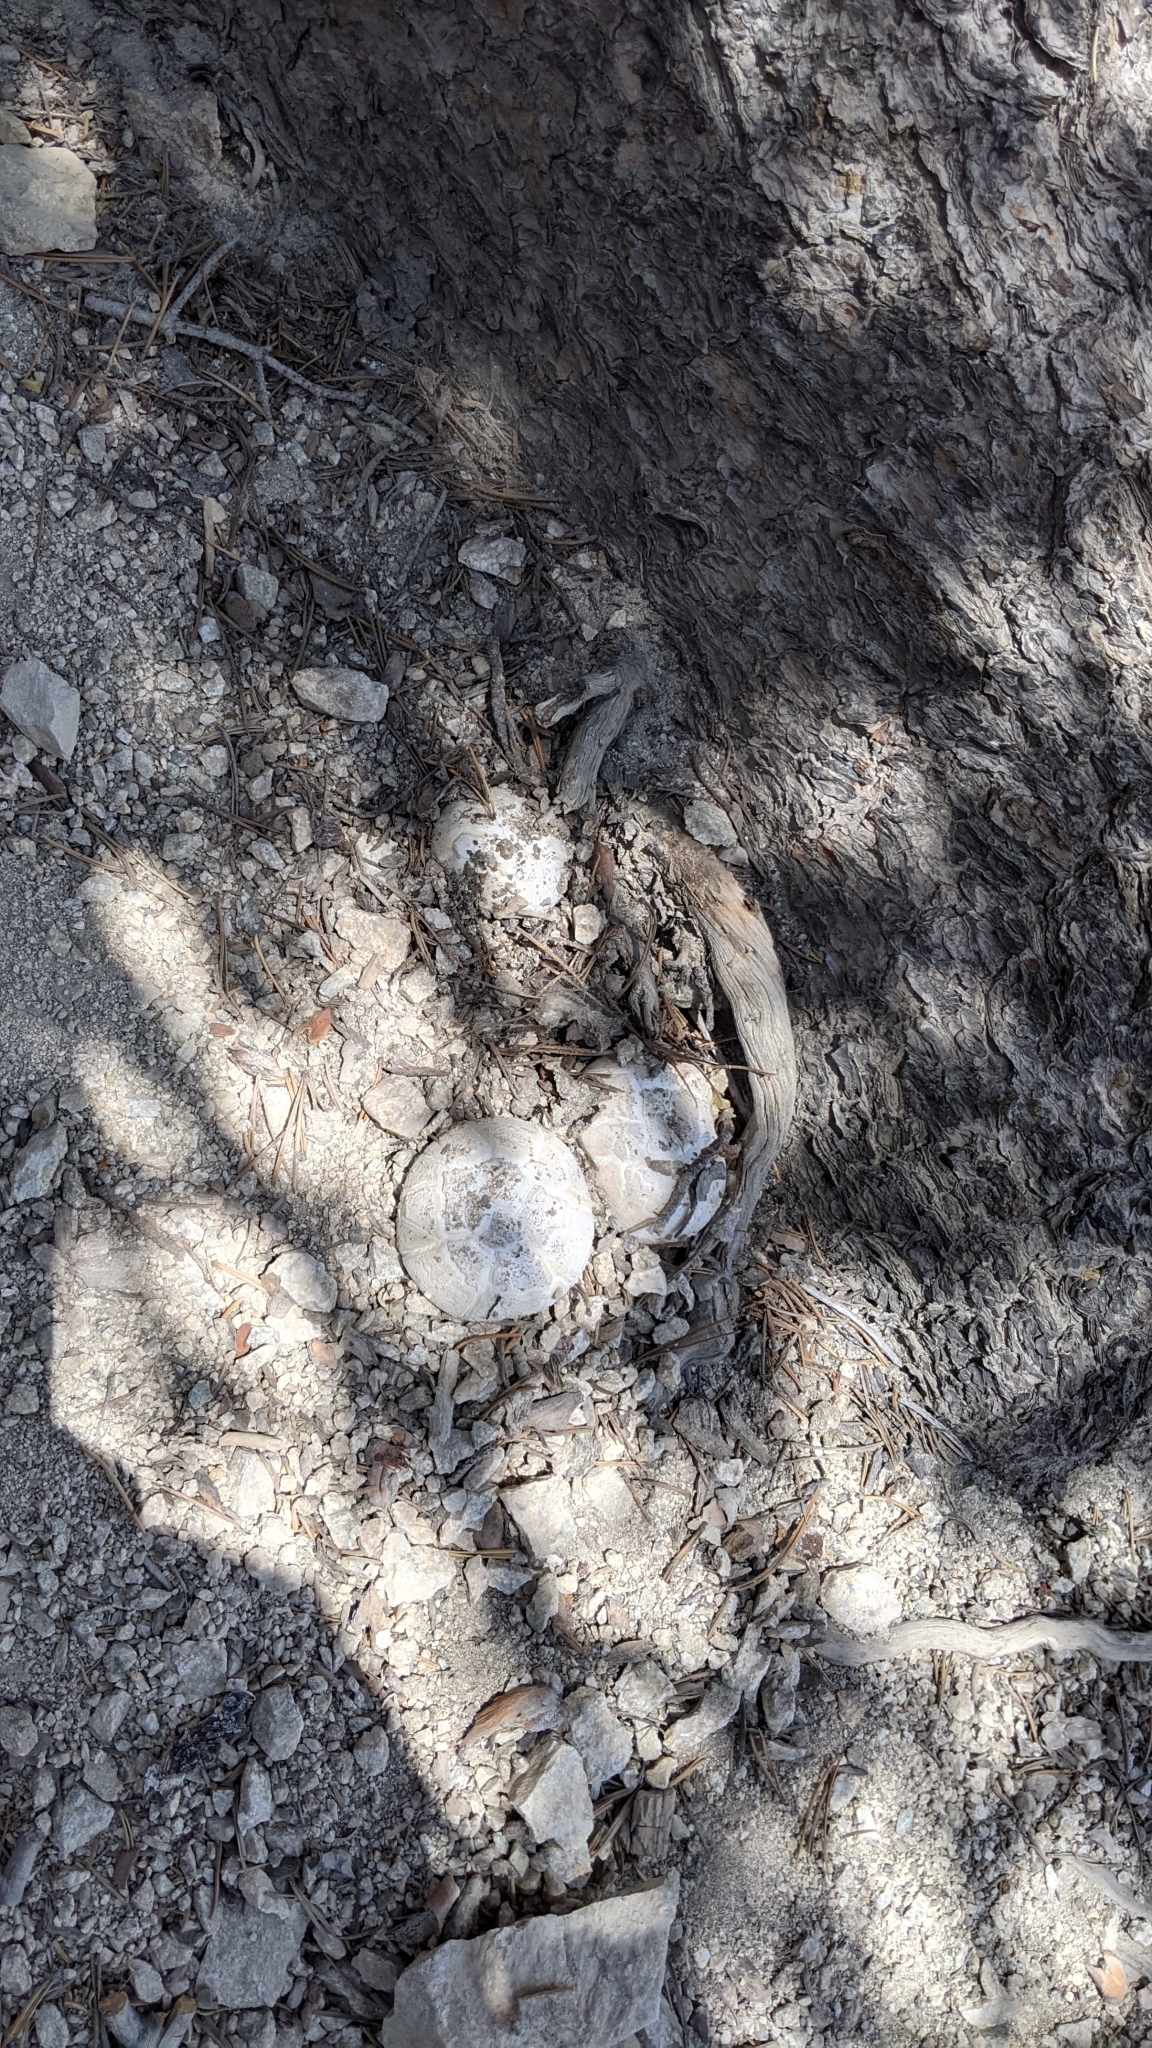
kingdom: Fungi
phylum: Basidiomycota
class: Agaricomycetes
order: Gloeophyllales
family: Gloeophyllaceae
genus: Neolentinus
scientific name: Neolentinus ponderosus
